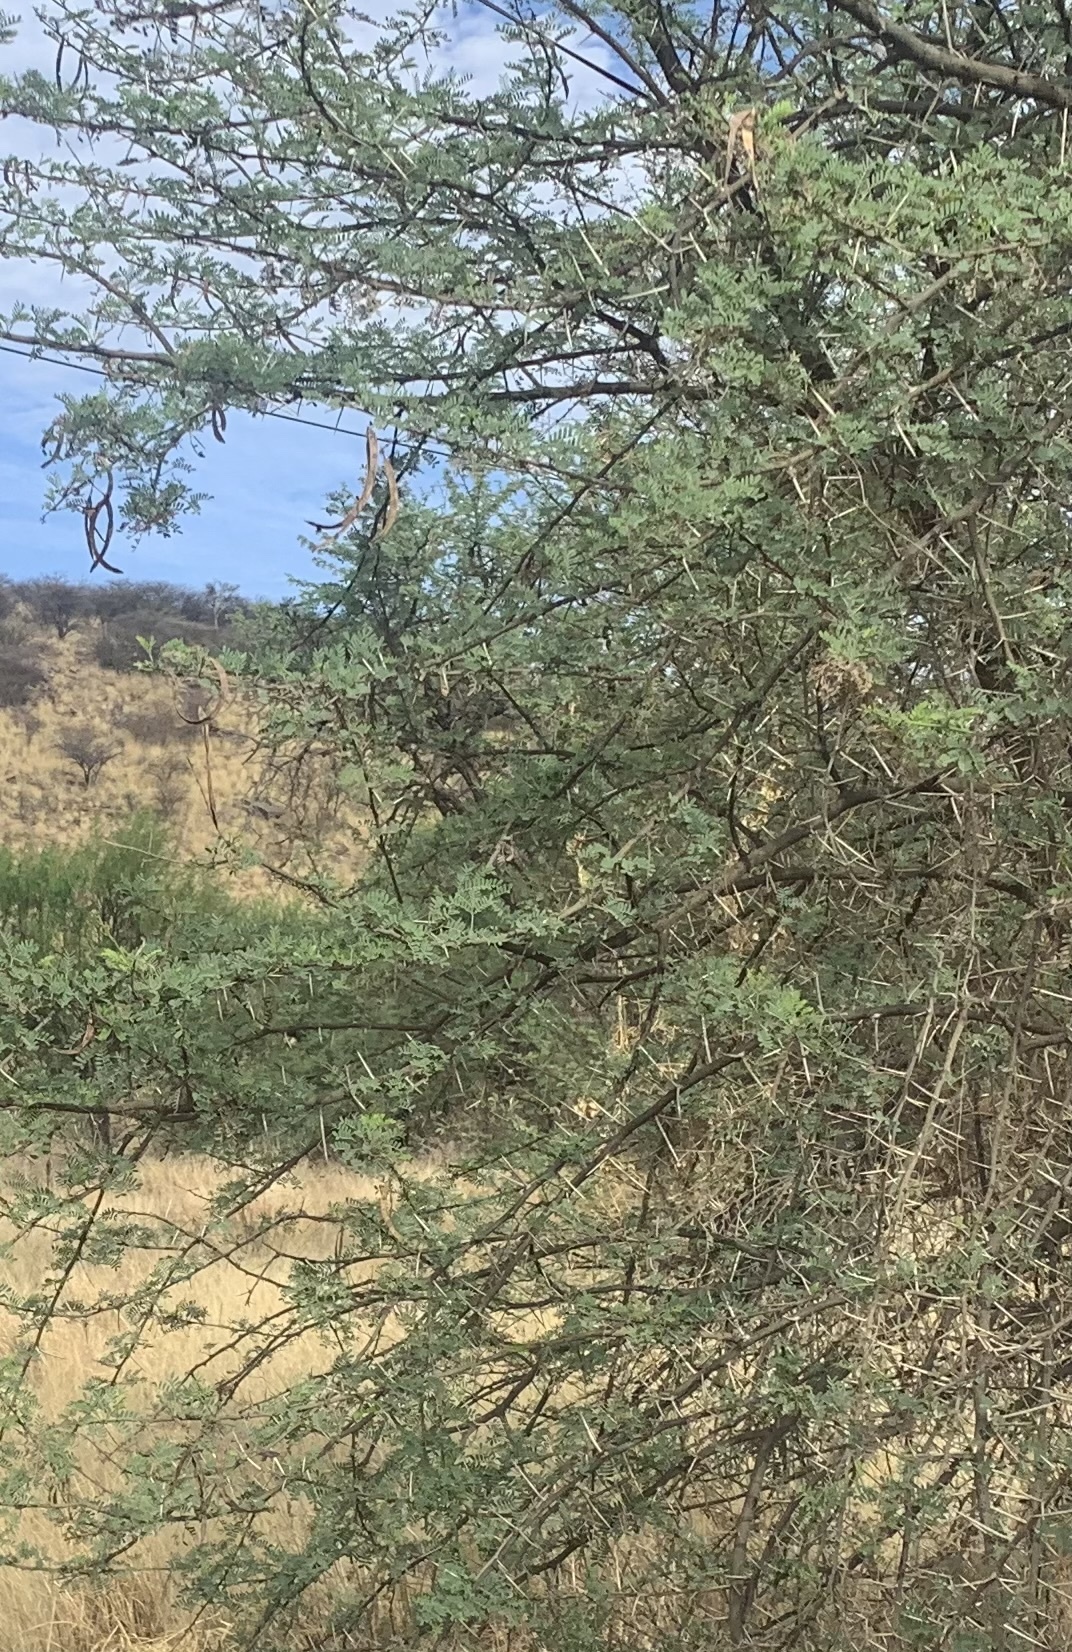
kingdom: Plantae
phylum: Tracheophyta
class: Magnoliopsida
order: Fabales
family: Fabaceae
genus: Vachellia
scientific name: Vachellia karroo
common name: Sweet thorn
